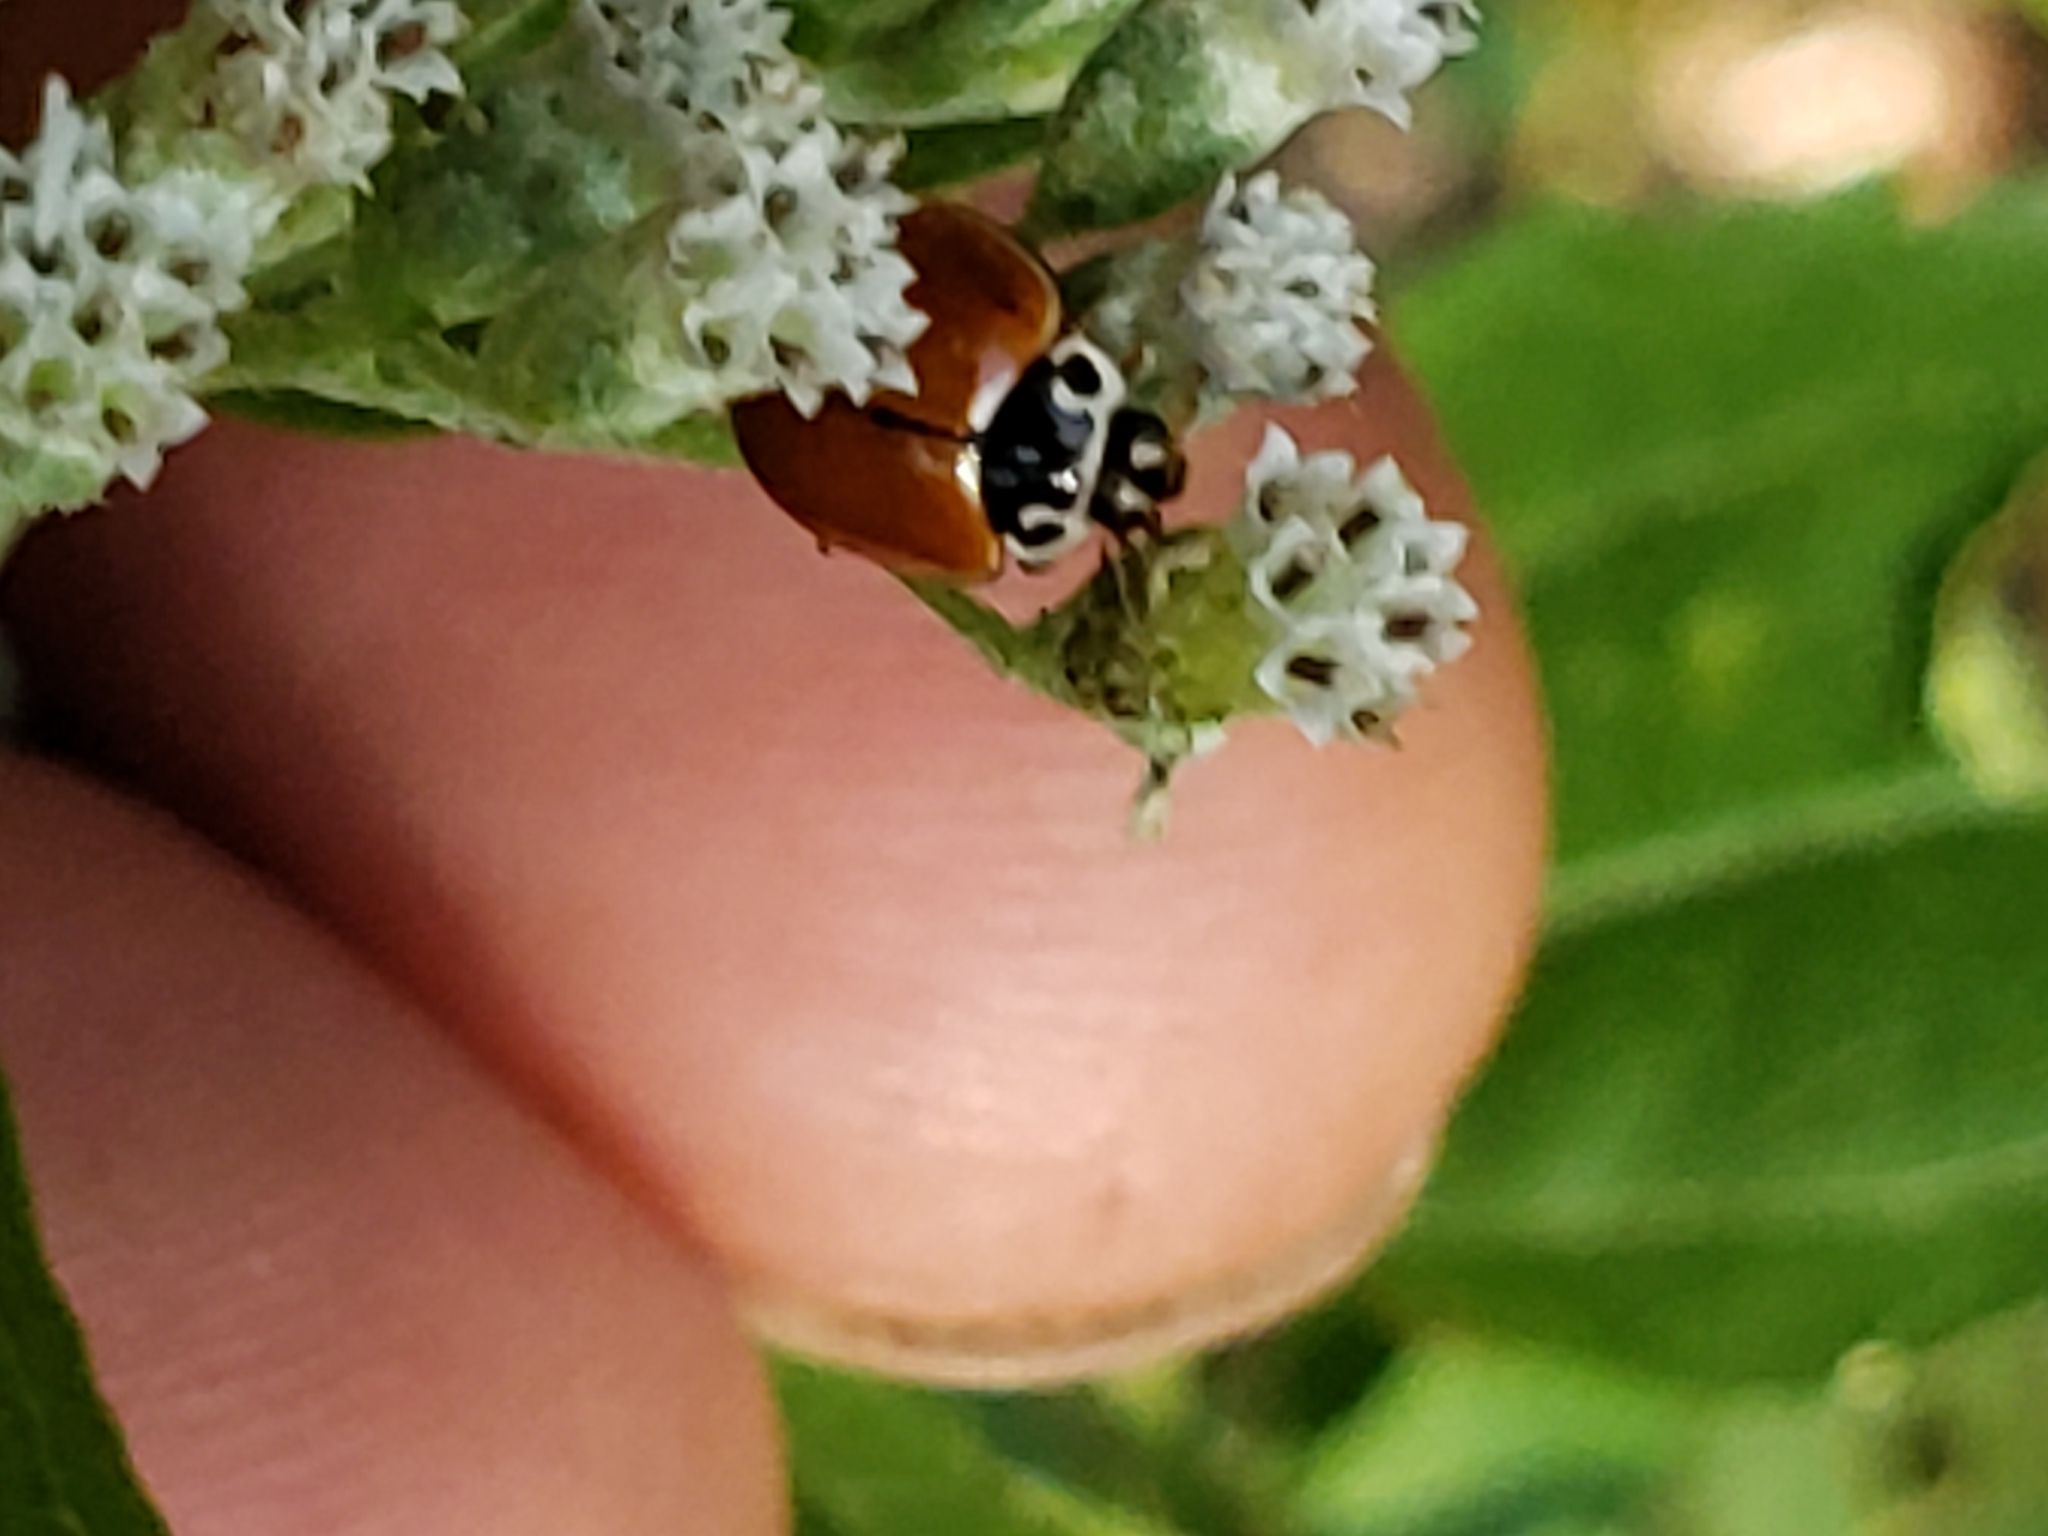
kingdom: Animalia
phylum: Arthropoda
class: Insecta
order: Coleoptera
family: Coccinellidae
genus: Cycloneda
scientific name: Cycloneda munda
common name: Polished lady beetle
